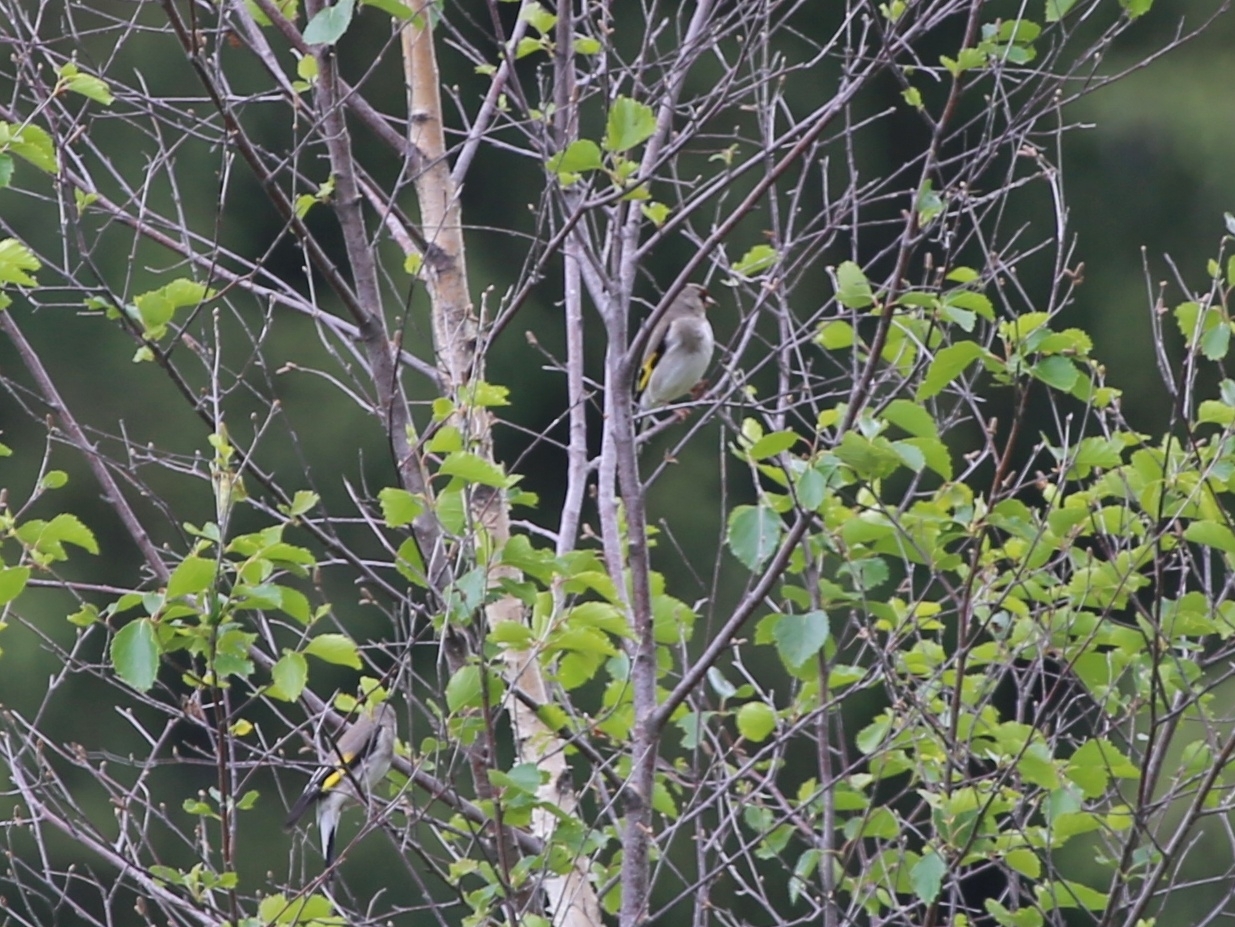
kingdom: Animalia
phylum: Chordata
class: Aves
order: Passeriformes
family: Fringillidae
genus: Carduelis
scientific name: Carduelis carduelis
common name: European goldfinch
